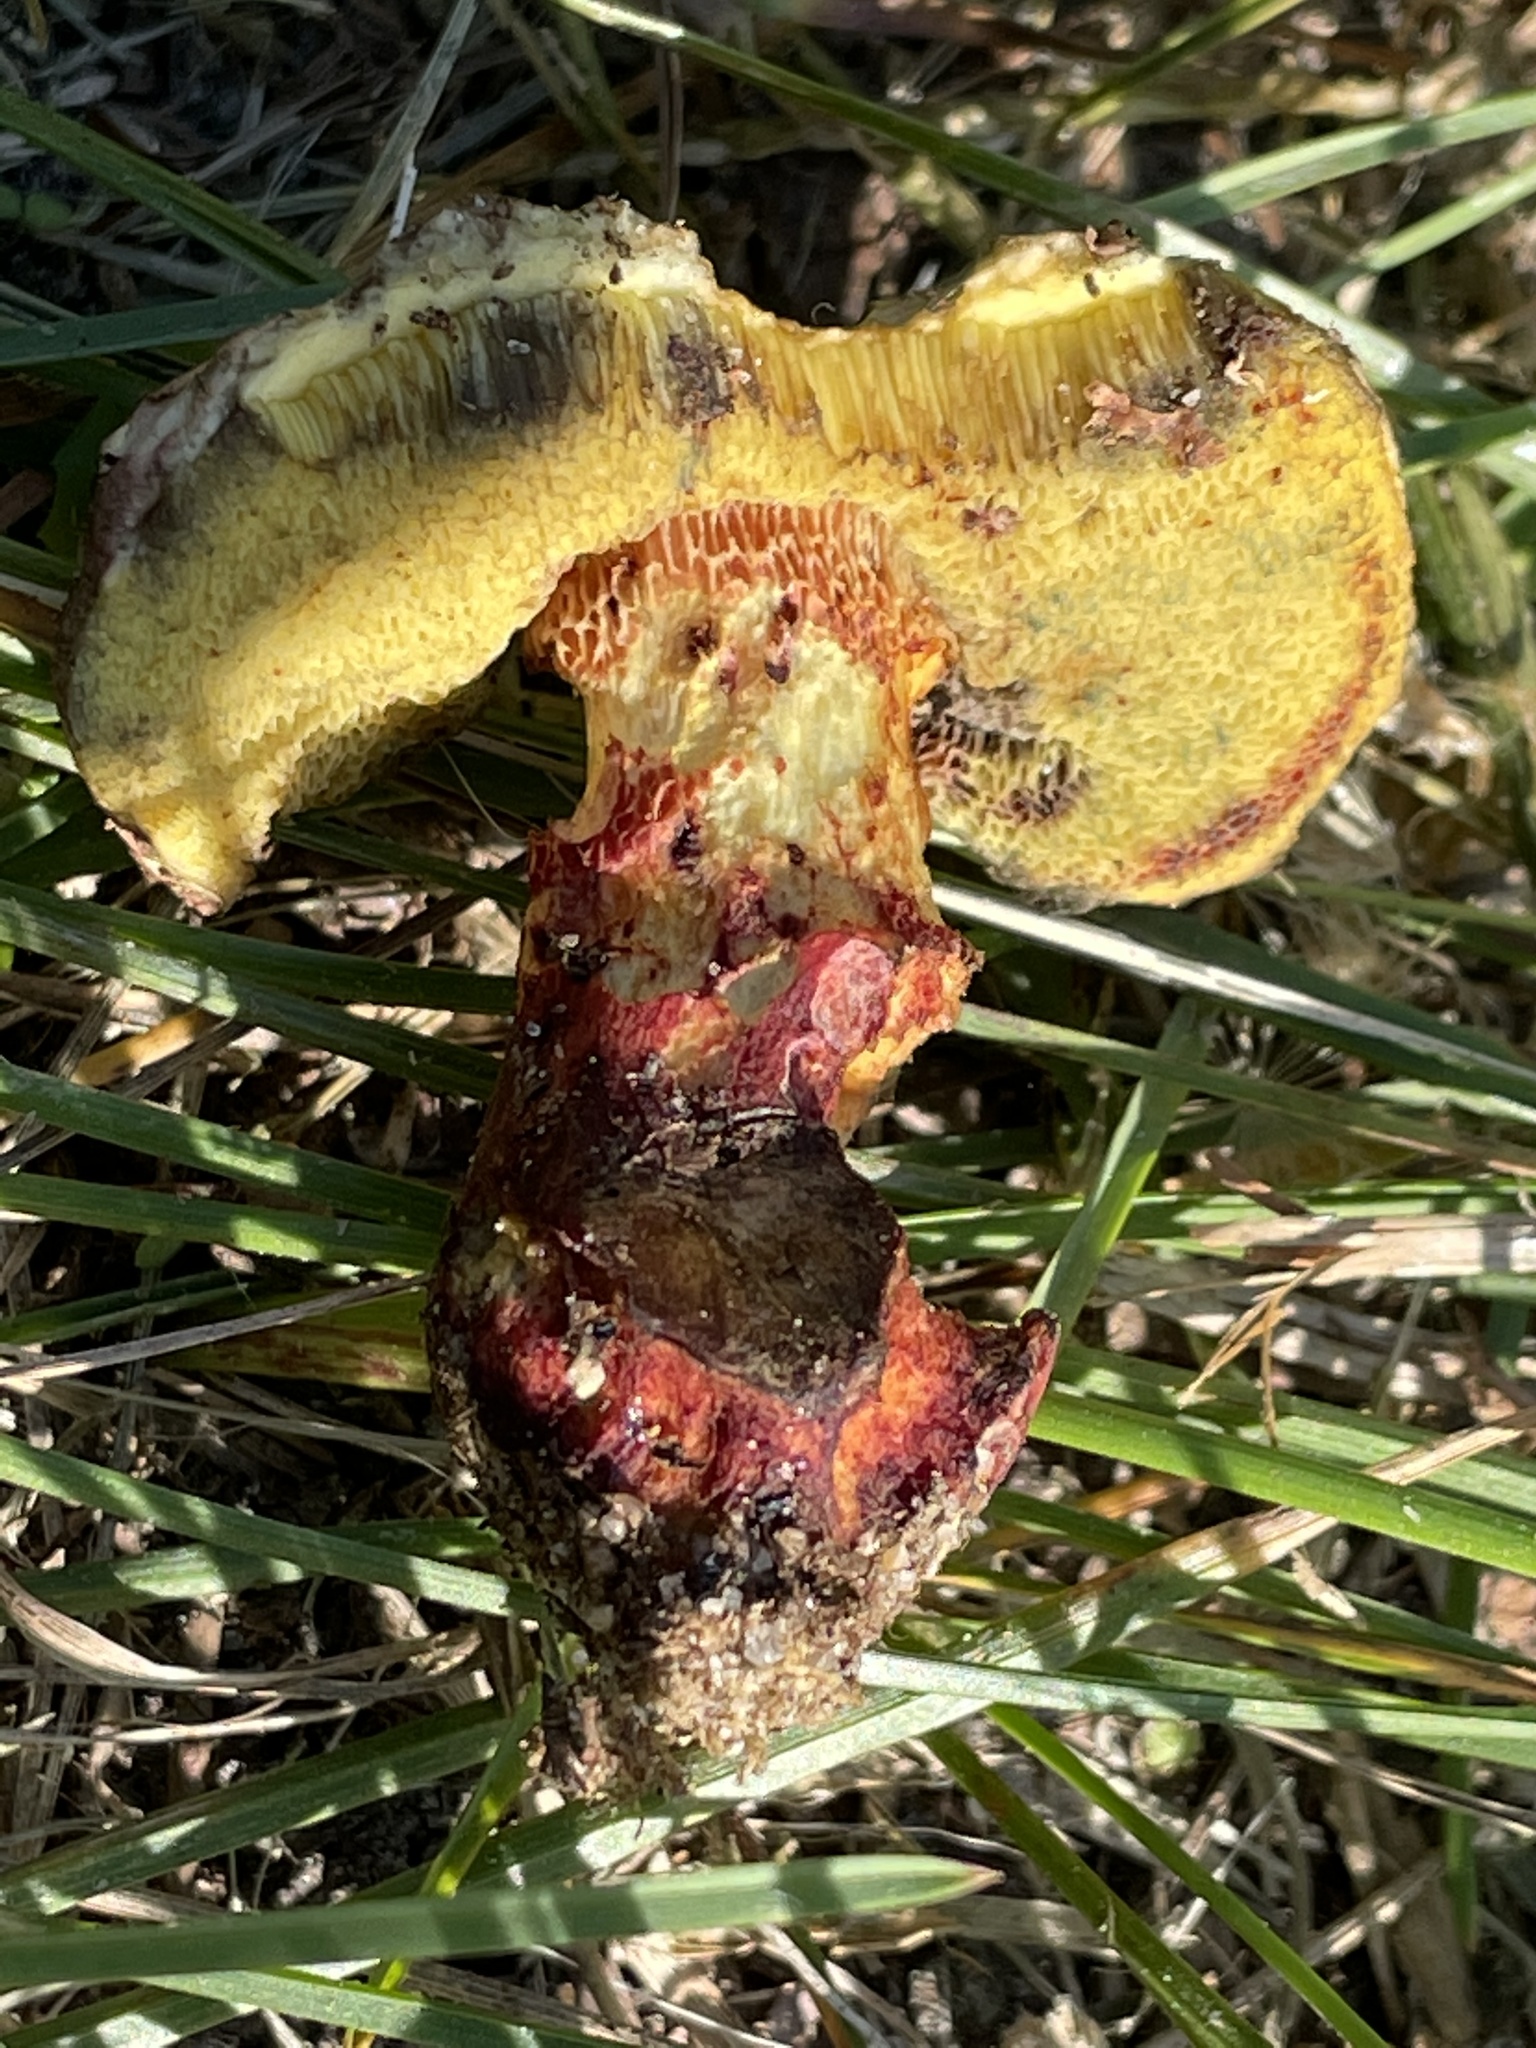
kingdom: Fungi
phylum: Basidiomycota
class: Agaricomycetes
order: Boletales
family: Boletaceae
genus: Boletus
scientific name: Boletus billieae
